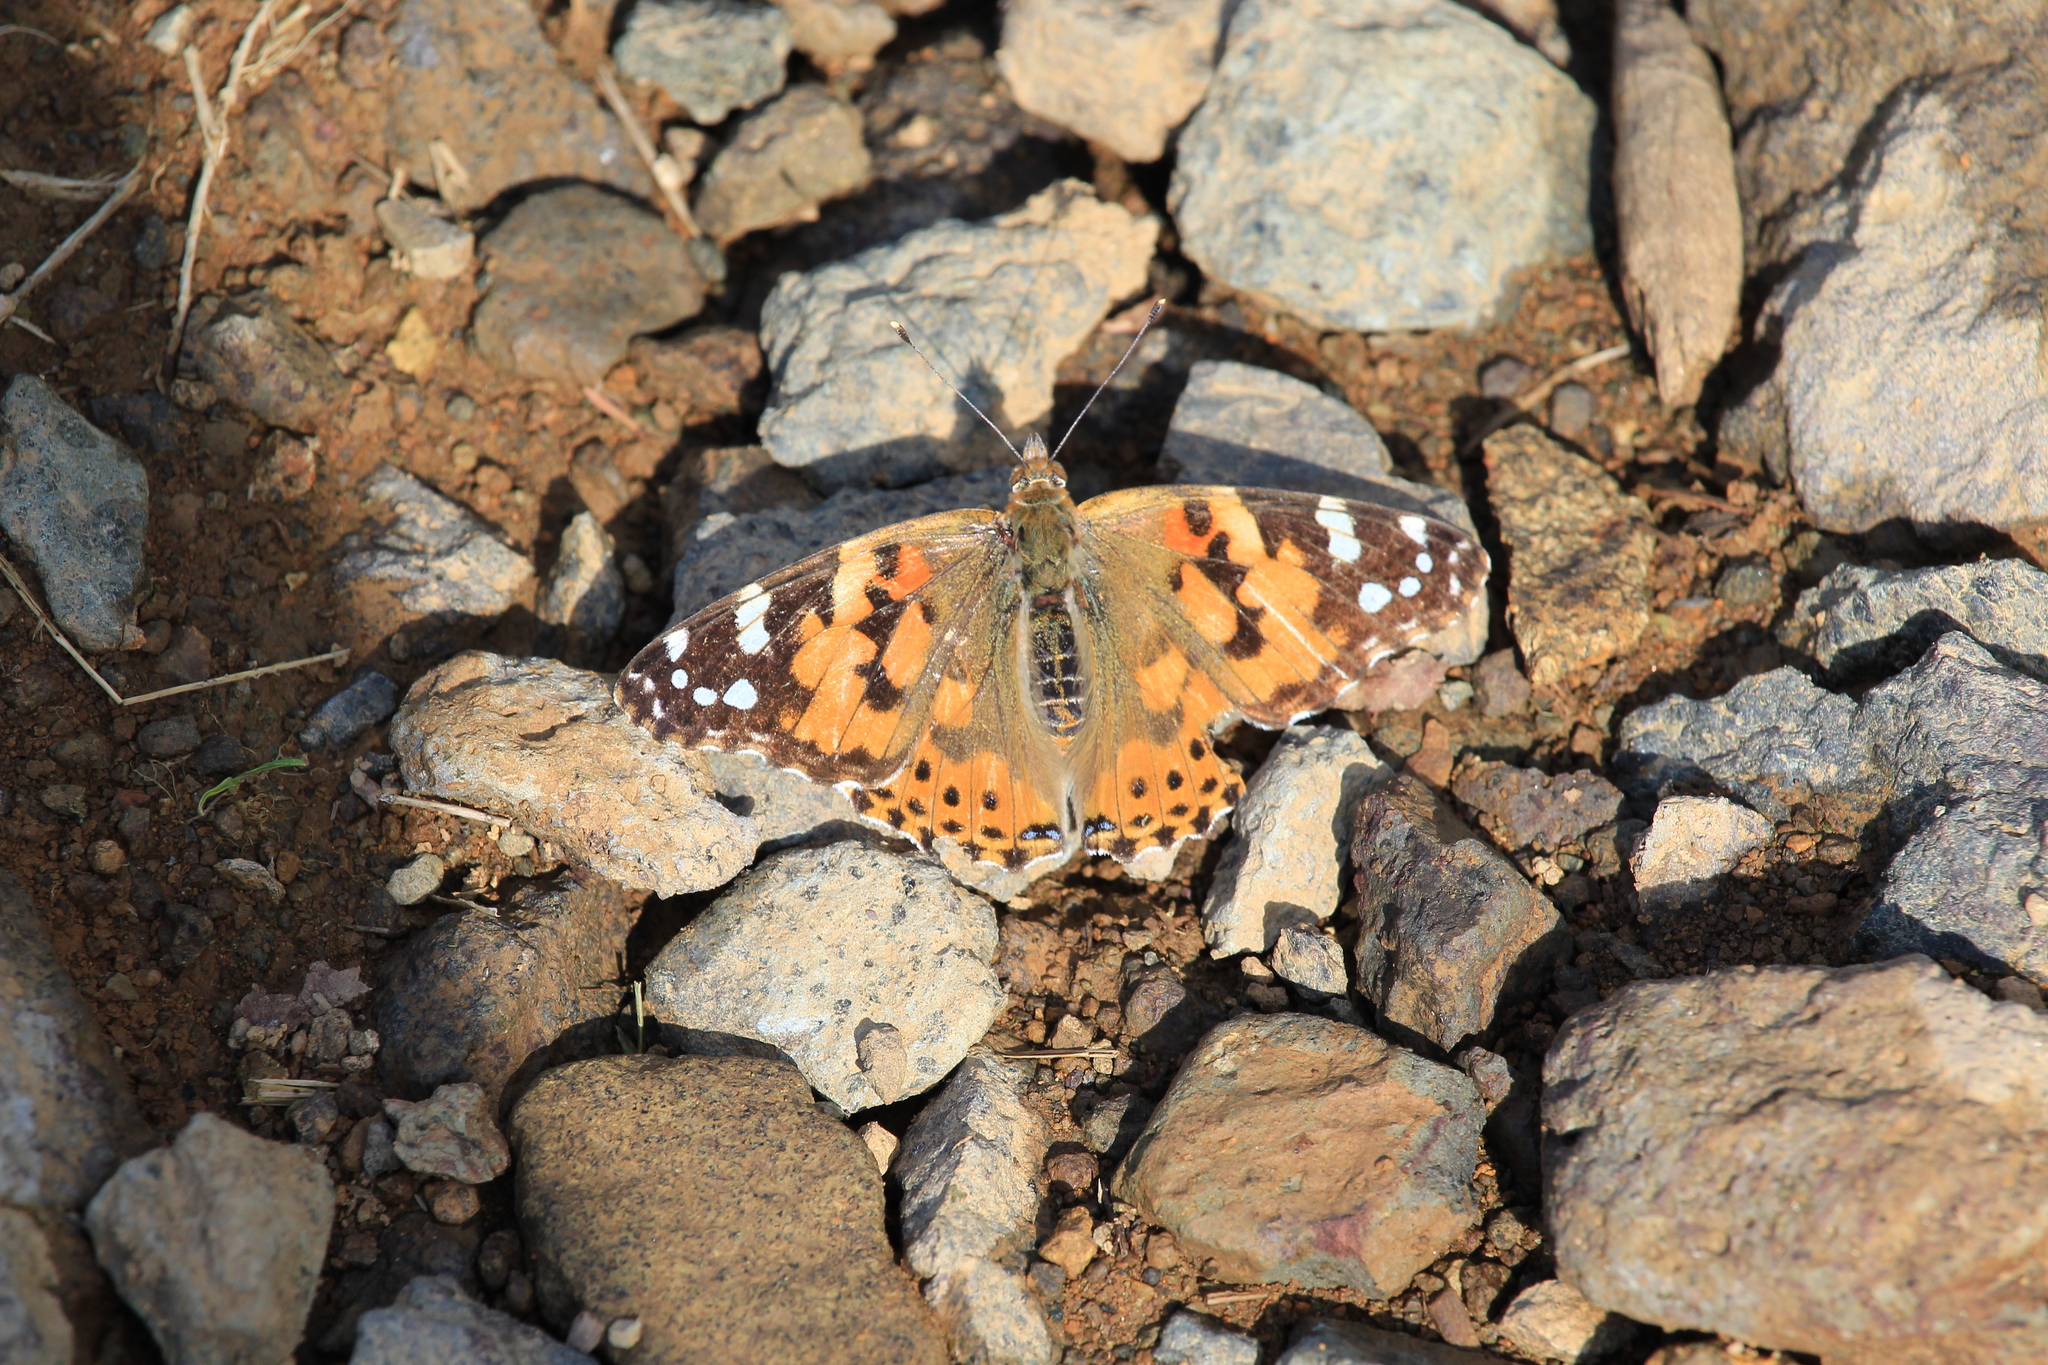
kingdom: Animalia
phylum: Arthropoda
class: Insecta
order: Lepidoptera
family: Nymphalidae
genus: Vanessa
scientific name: Vanessa cardui
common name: Painted lady
